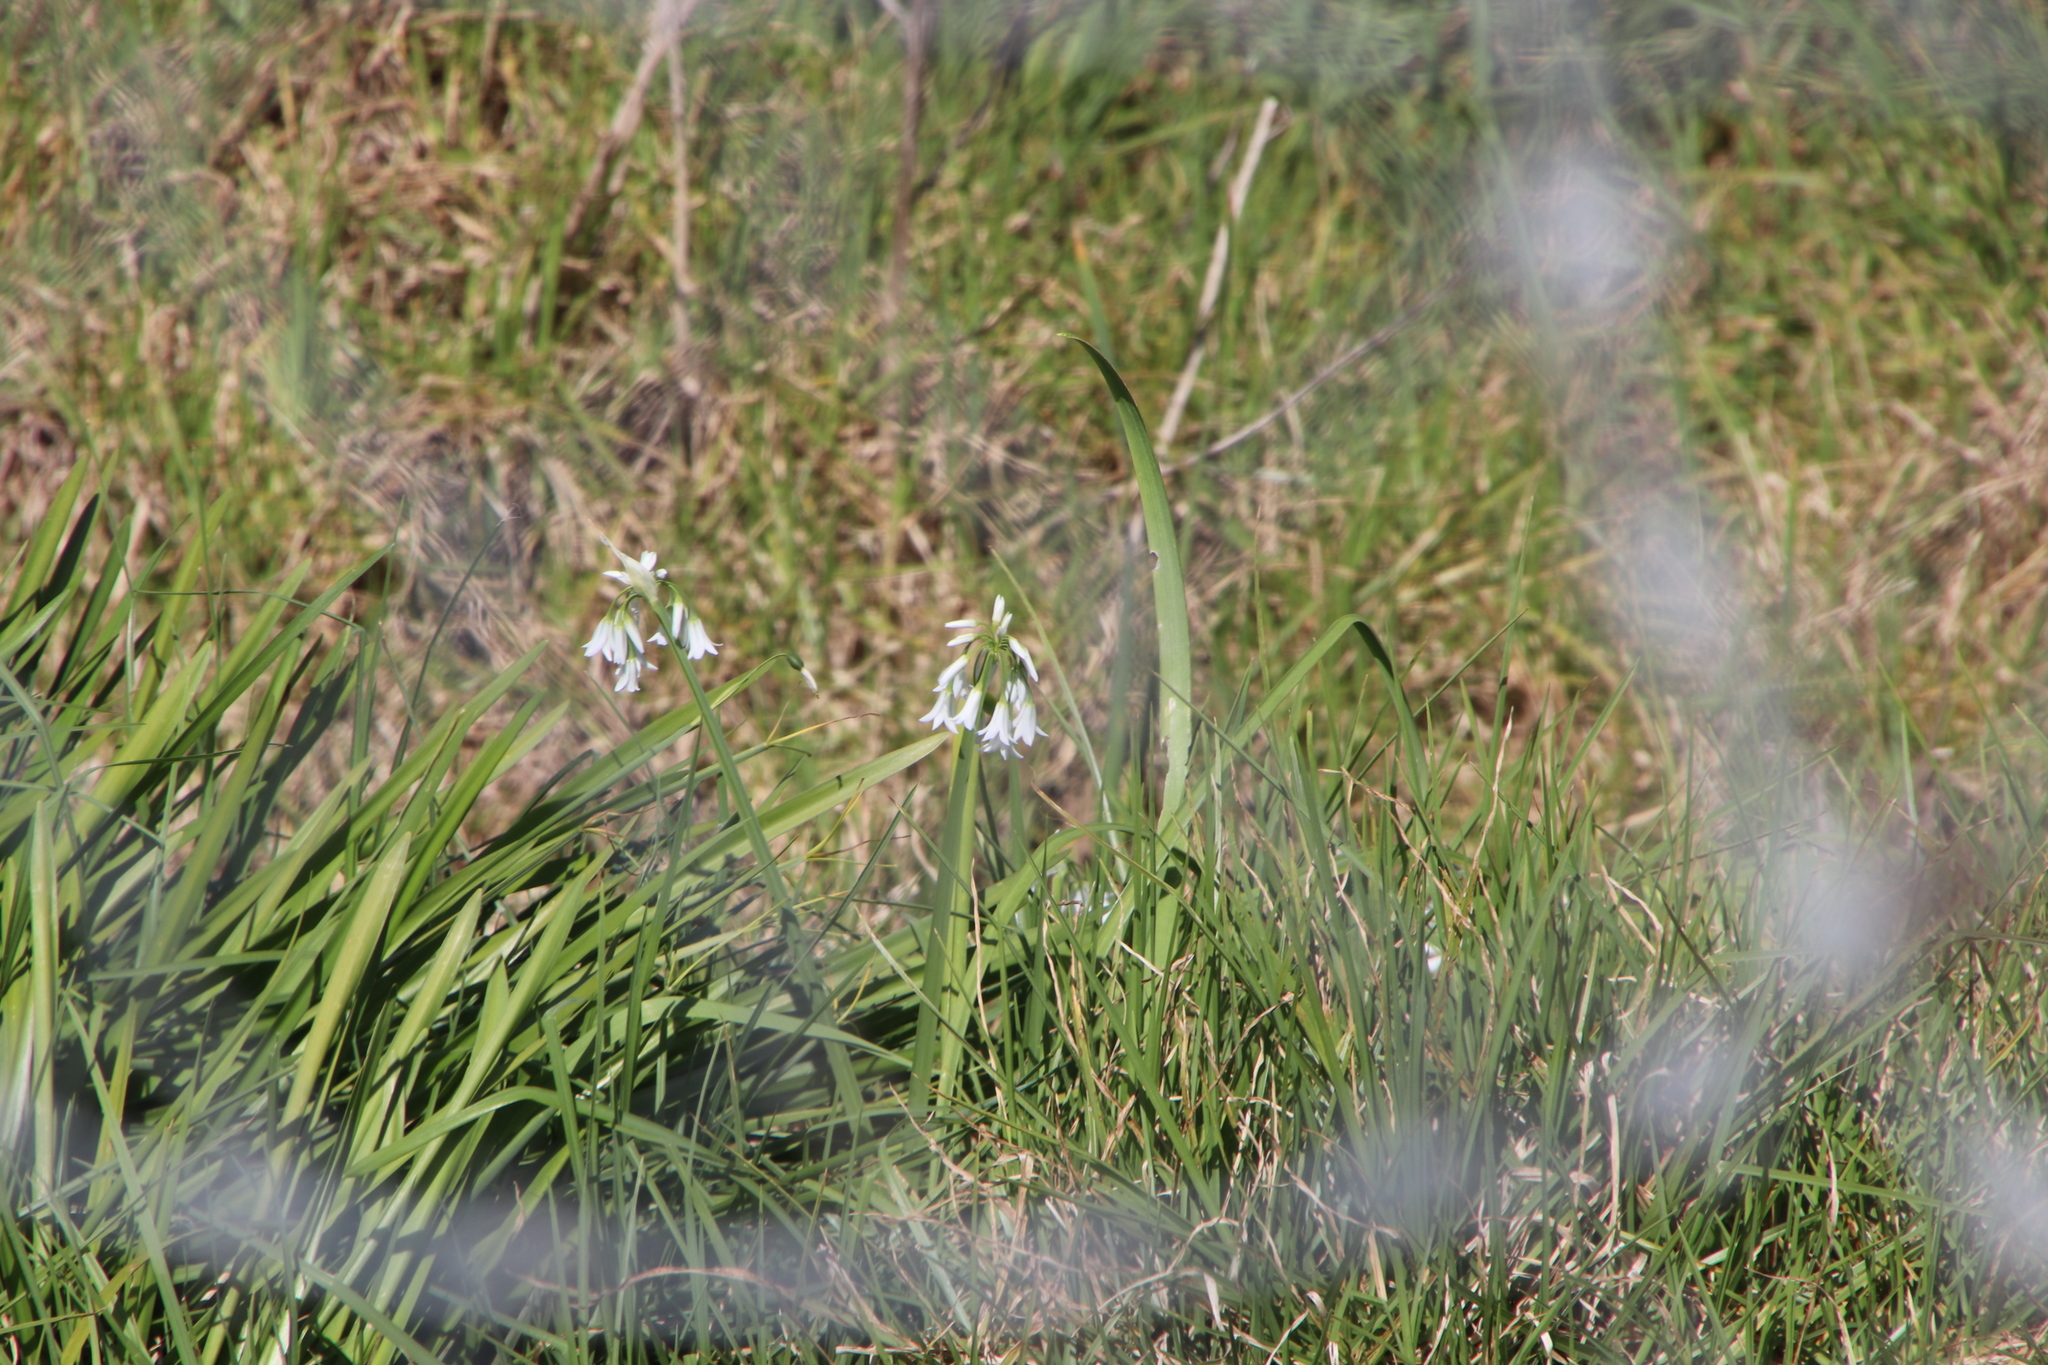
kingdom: Plantae
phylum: Tracheophyta
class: Liliopsida
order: Asparagales
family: Amaryllidaceae
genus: Allium
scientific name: Allium triquetrum
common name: Three-cornered garlic
